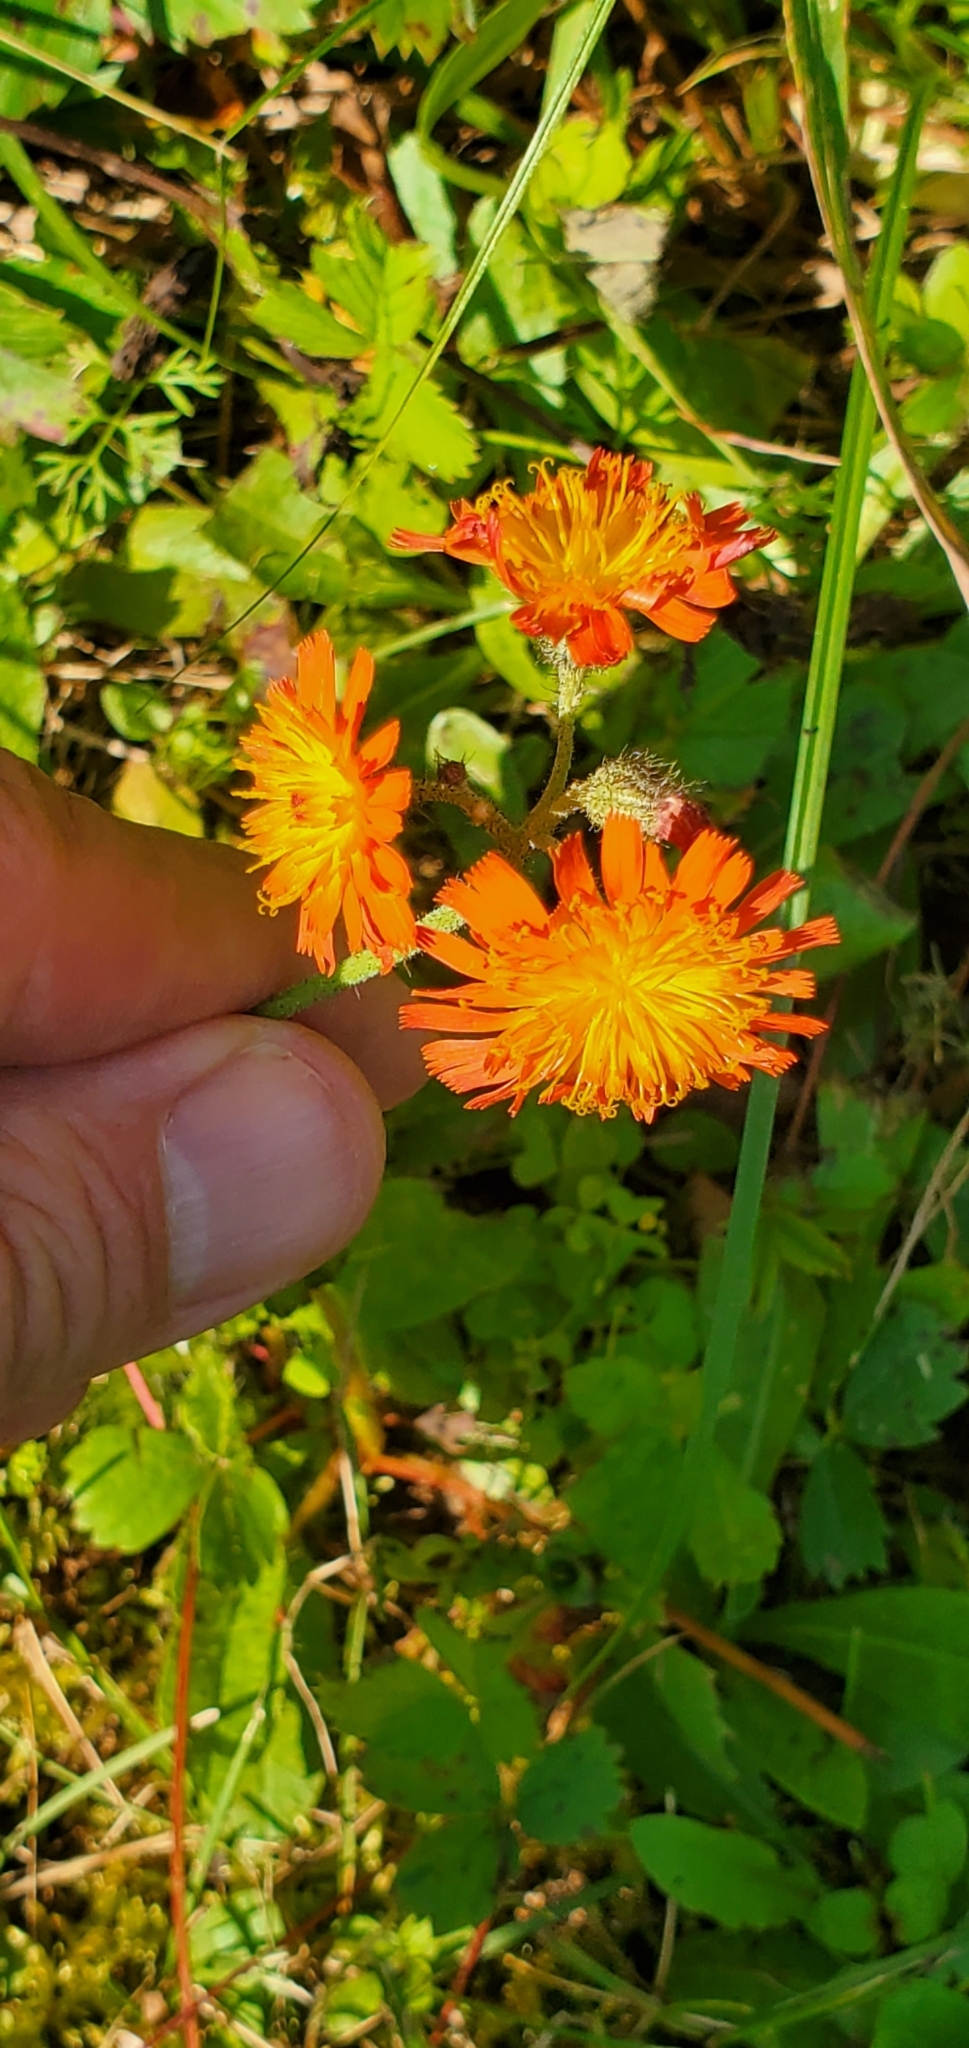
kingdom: Plantae
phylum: Tracheophyta
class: Magnoliopsida
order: Asterales
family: Asteraceae
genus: Pilosella
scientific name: Pilosella aurantiaca
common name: Fox-and-cubs
